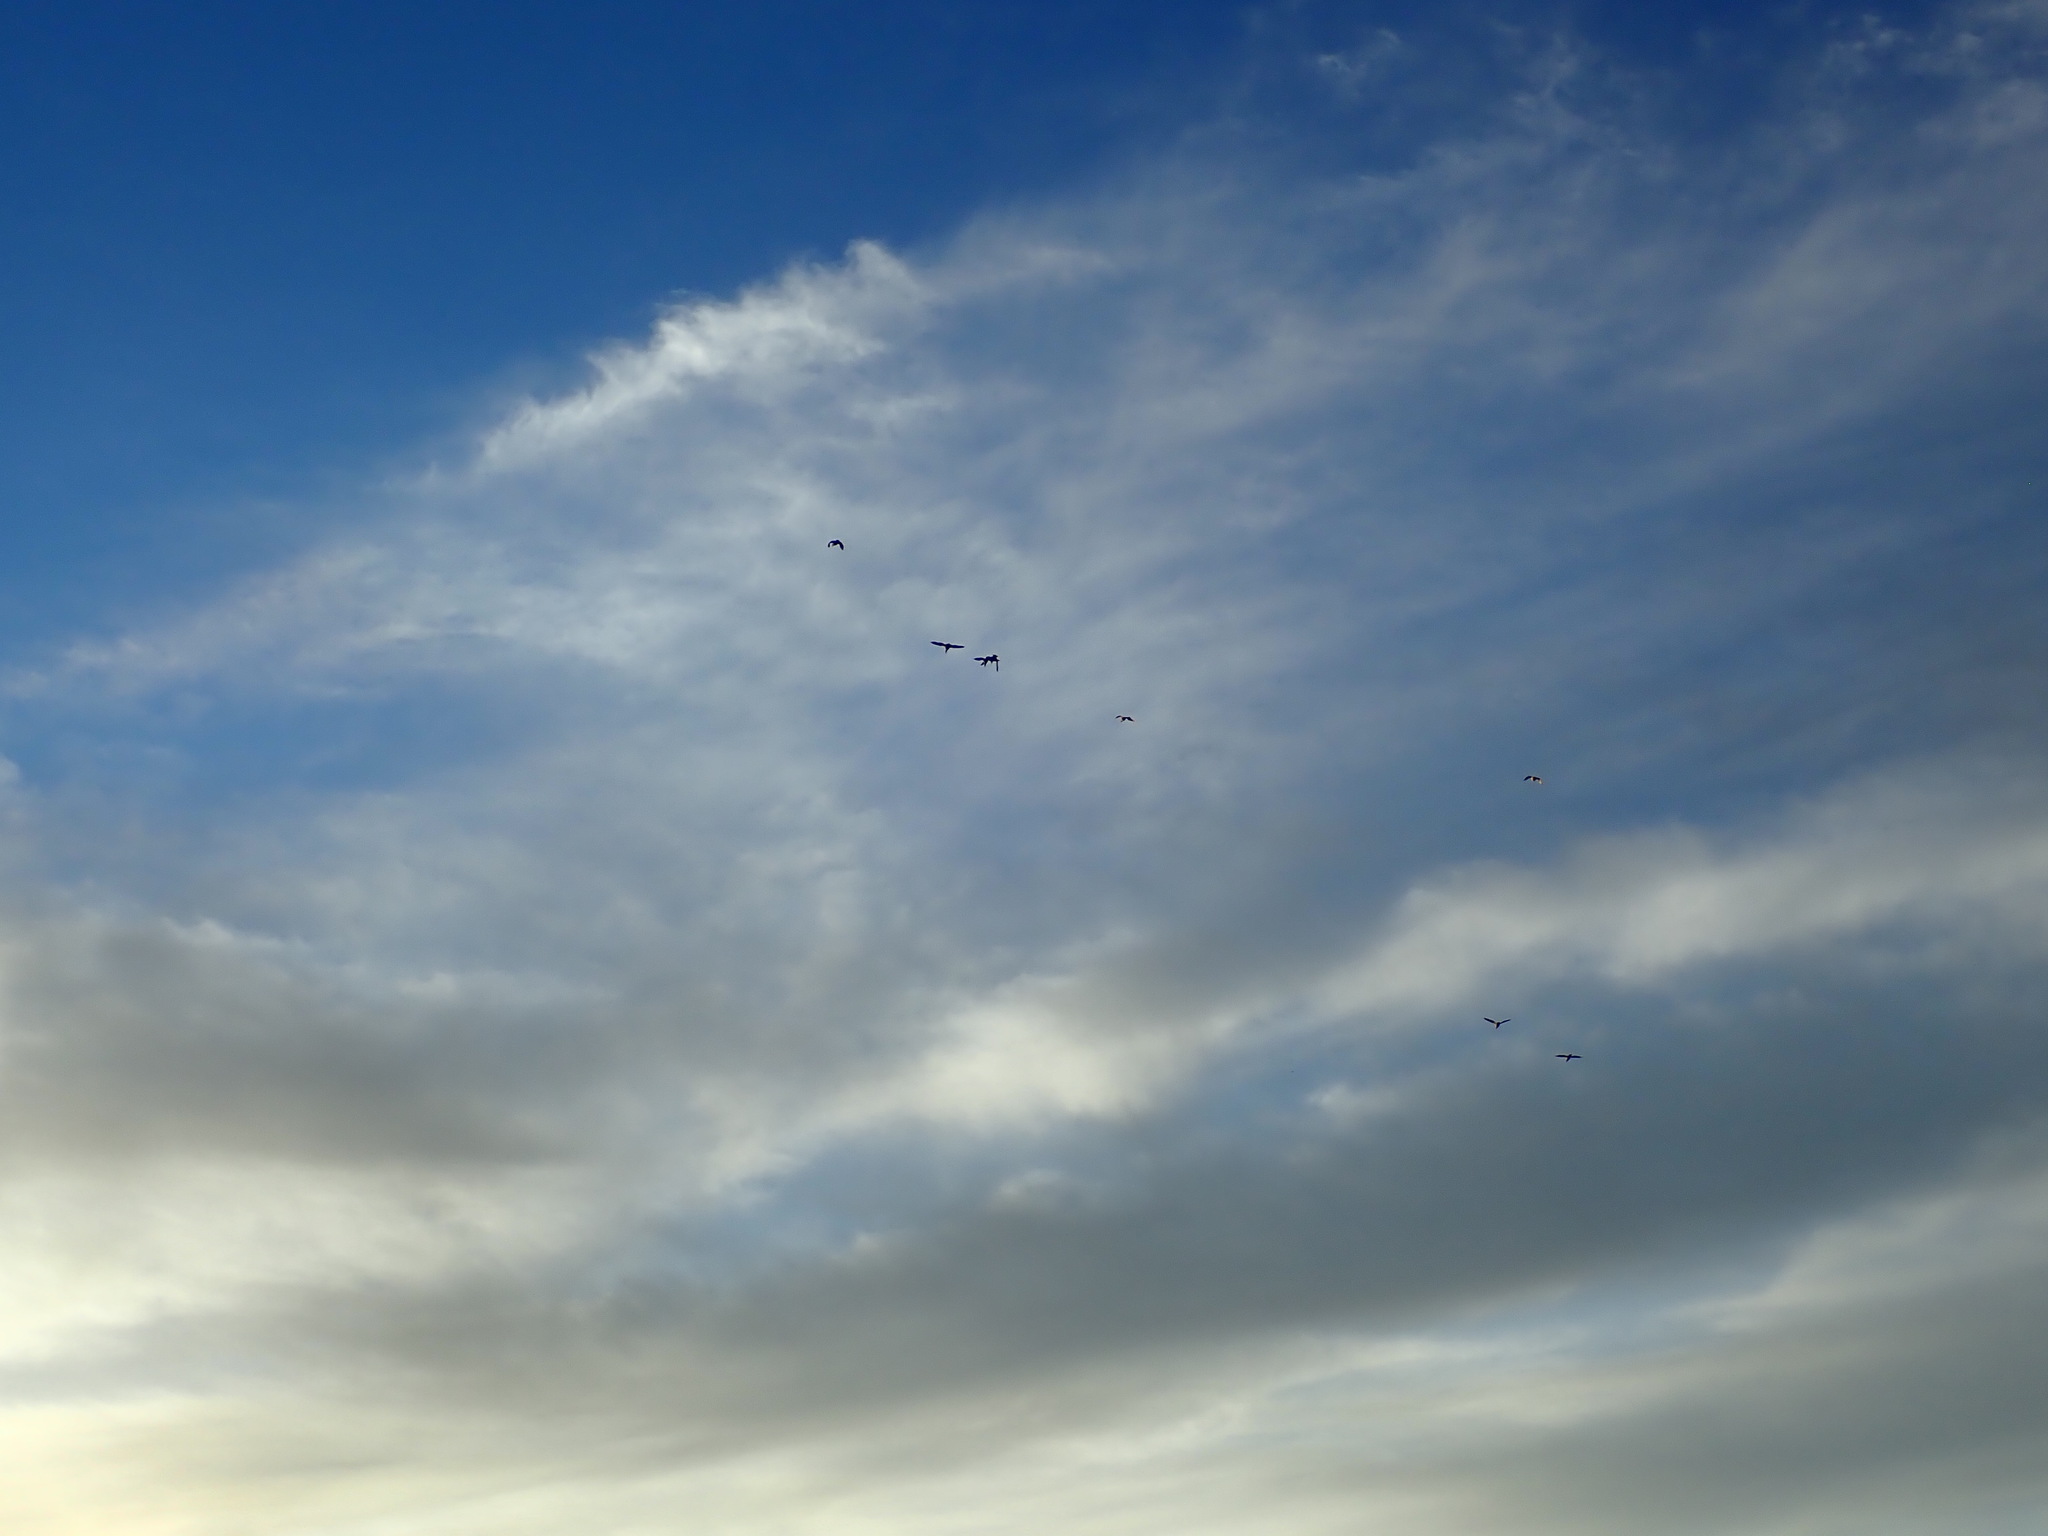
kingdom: Animalia
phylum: Chordata
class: Aves
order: Charadriiformes
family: Charadriidae
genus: Vanellus
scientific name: Vanellus miles
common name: Masked lapwing
